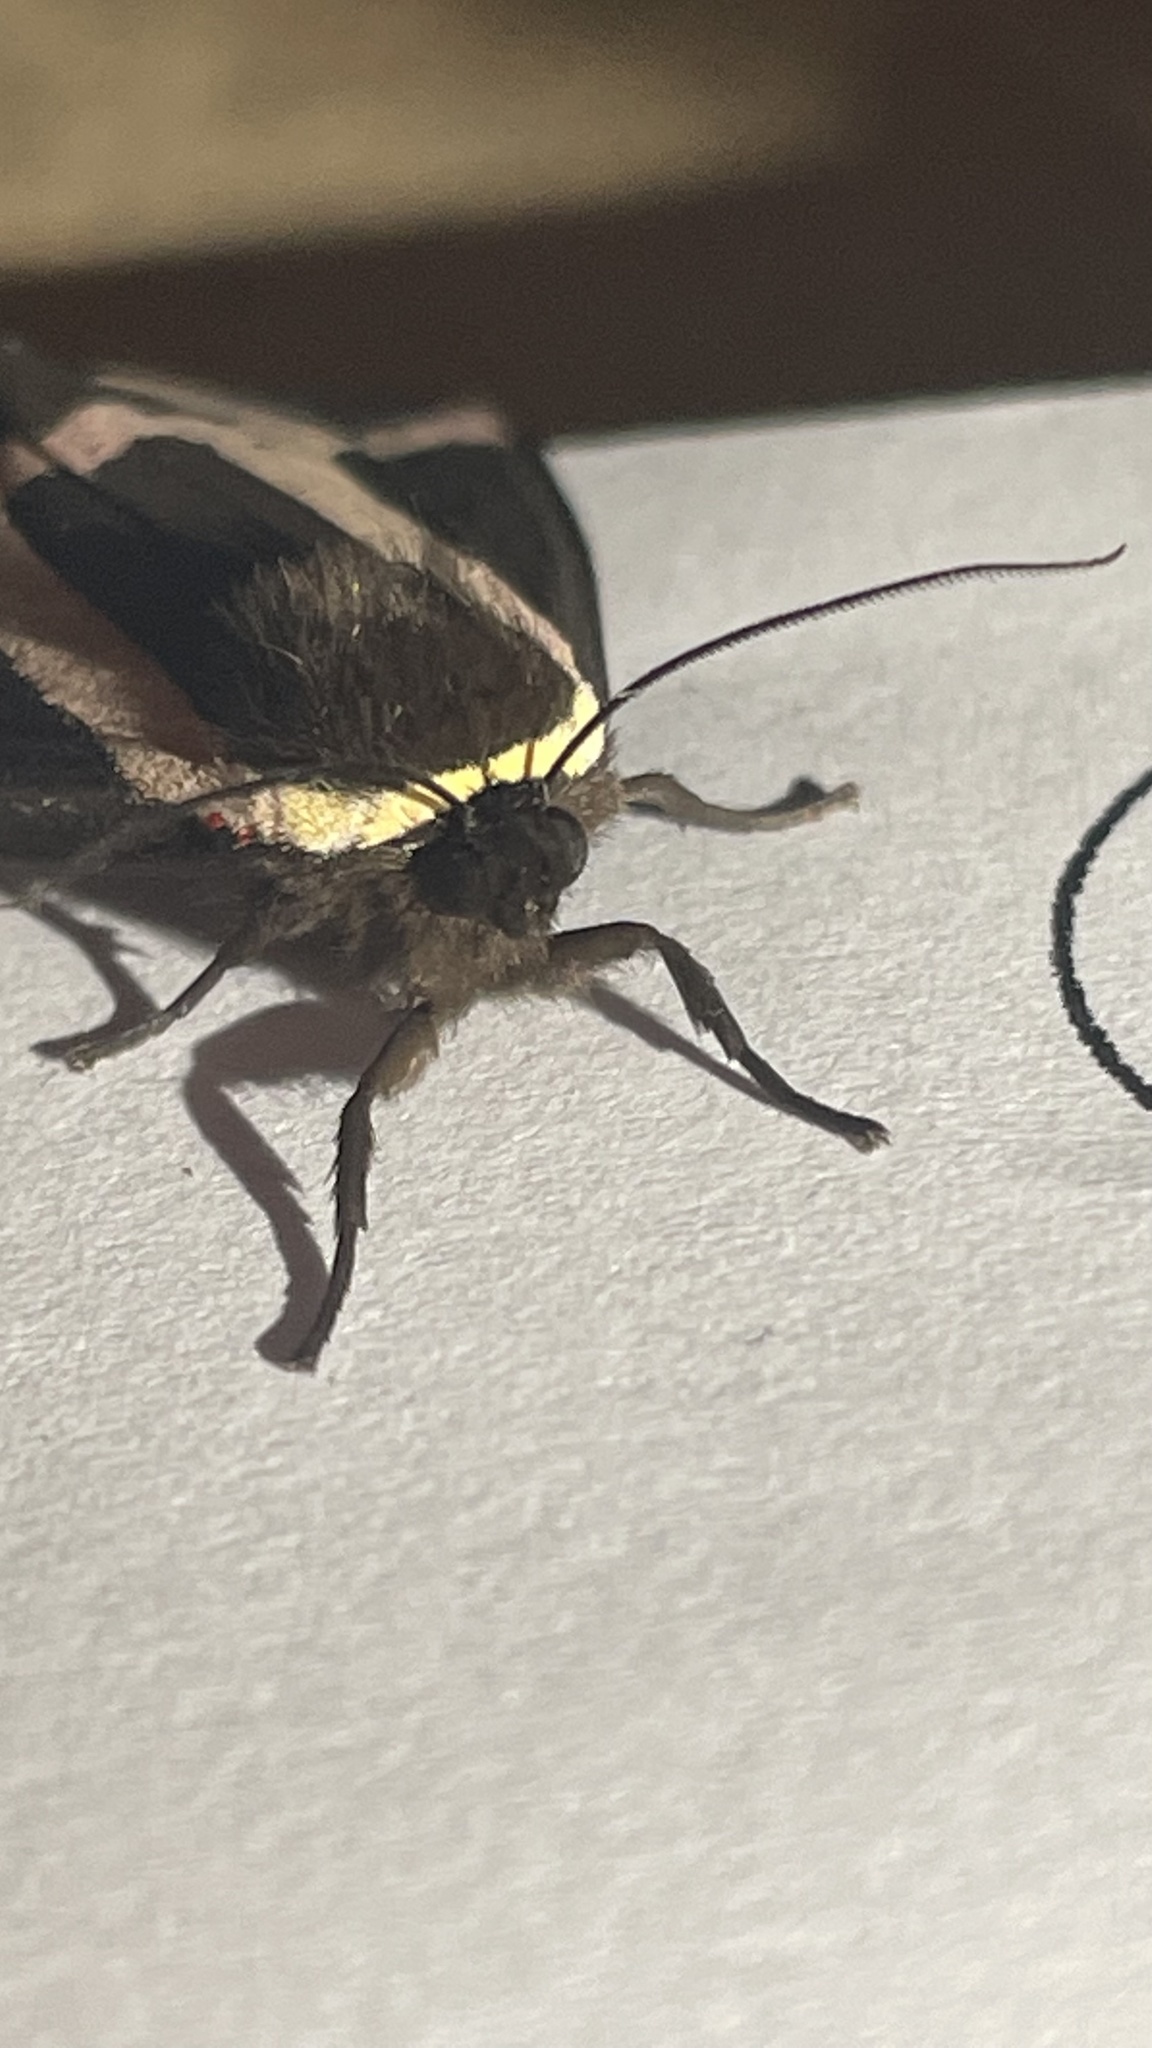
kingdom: Animalia
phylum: Arthropoda
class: Insecta
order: Lepidoptera
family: Erebidae
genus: Dysschema
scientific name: Dysschema sacrifica
